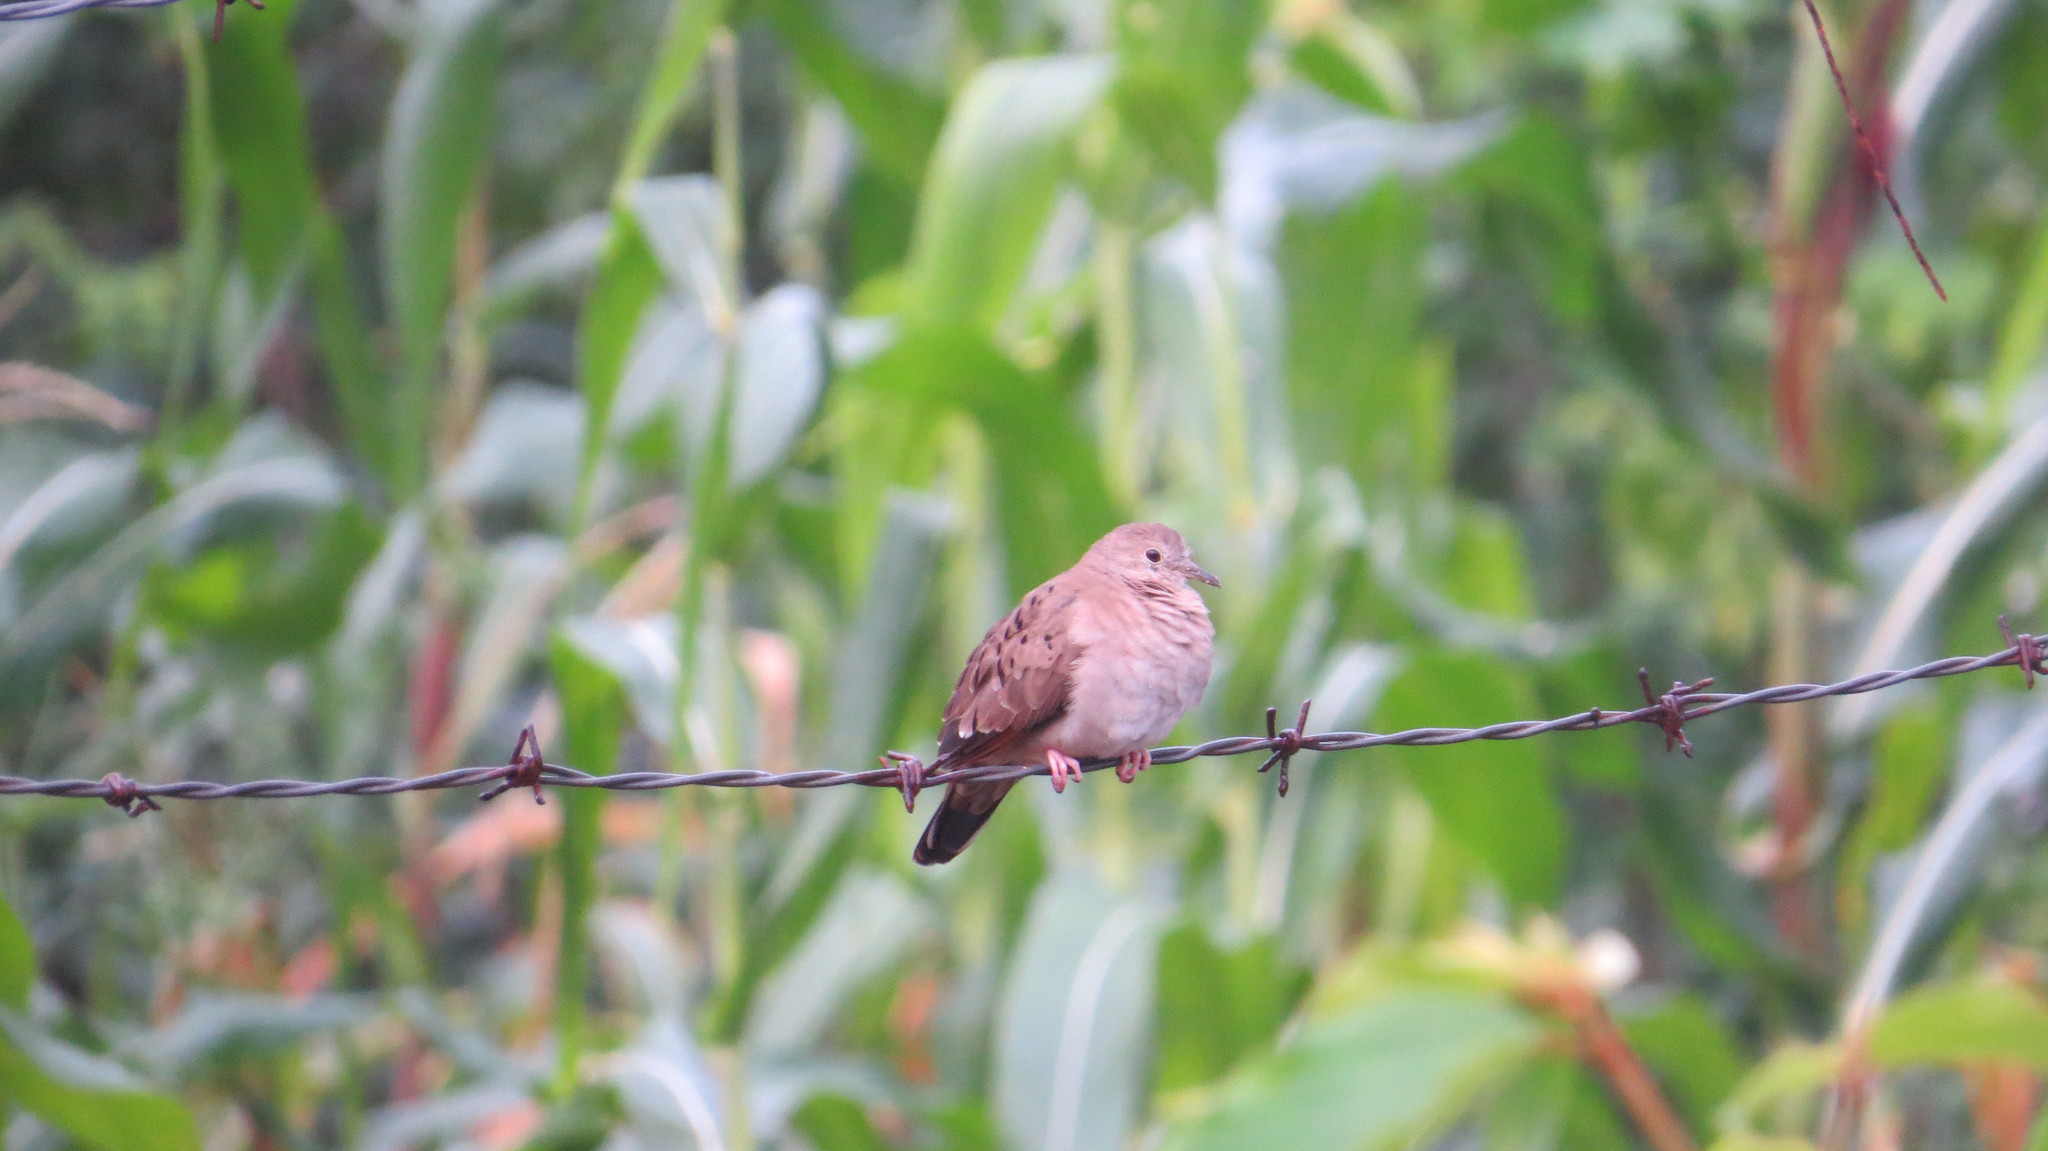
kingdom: Animalia
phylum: Chordata
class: Aves
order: Columbiformes
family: Columbidae
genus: Columbina
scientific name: Columbina talpacoti
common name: Ruddy ground dove
